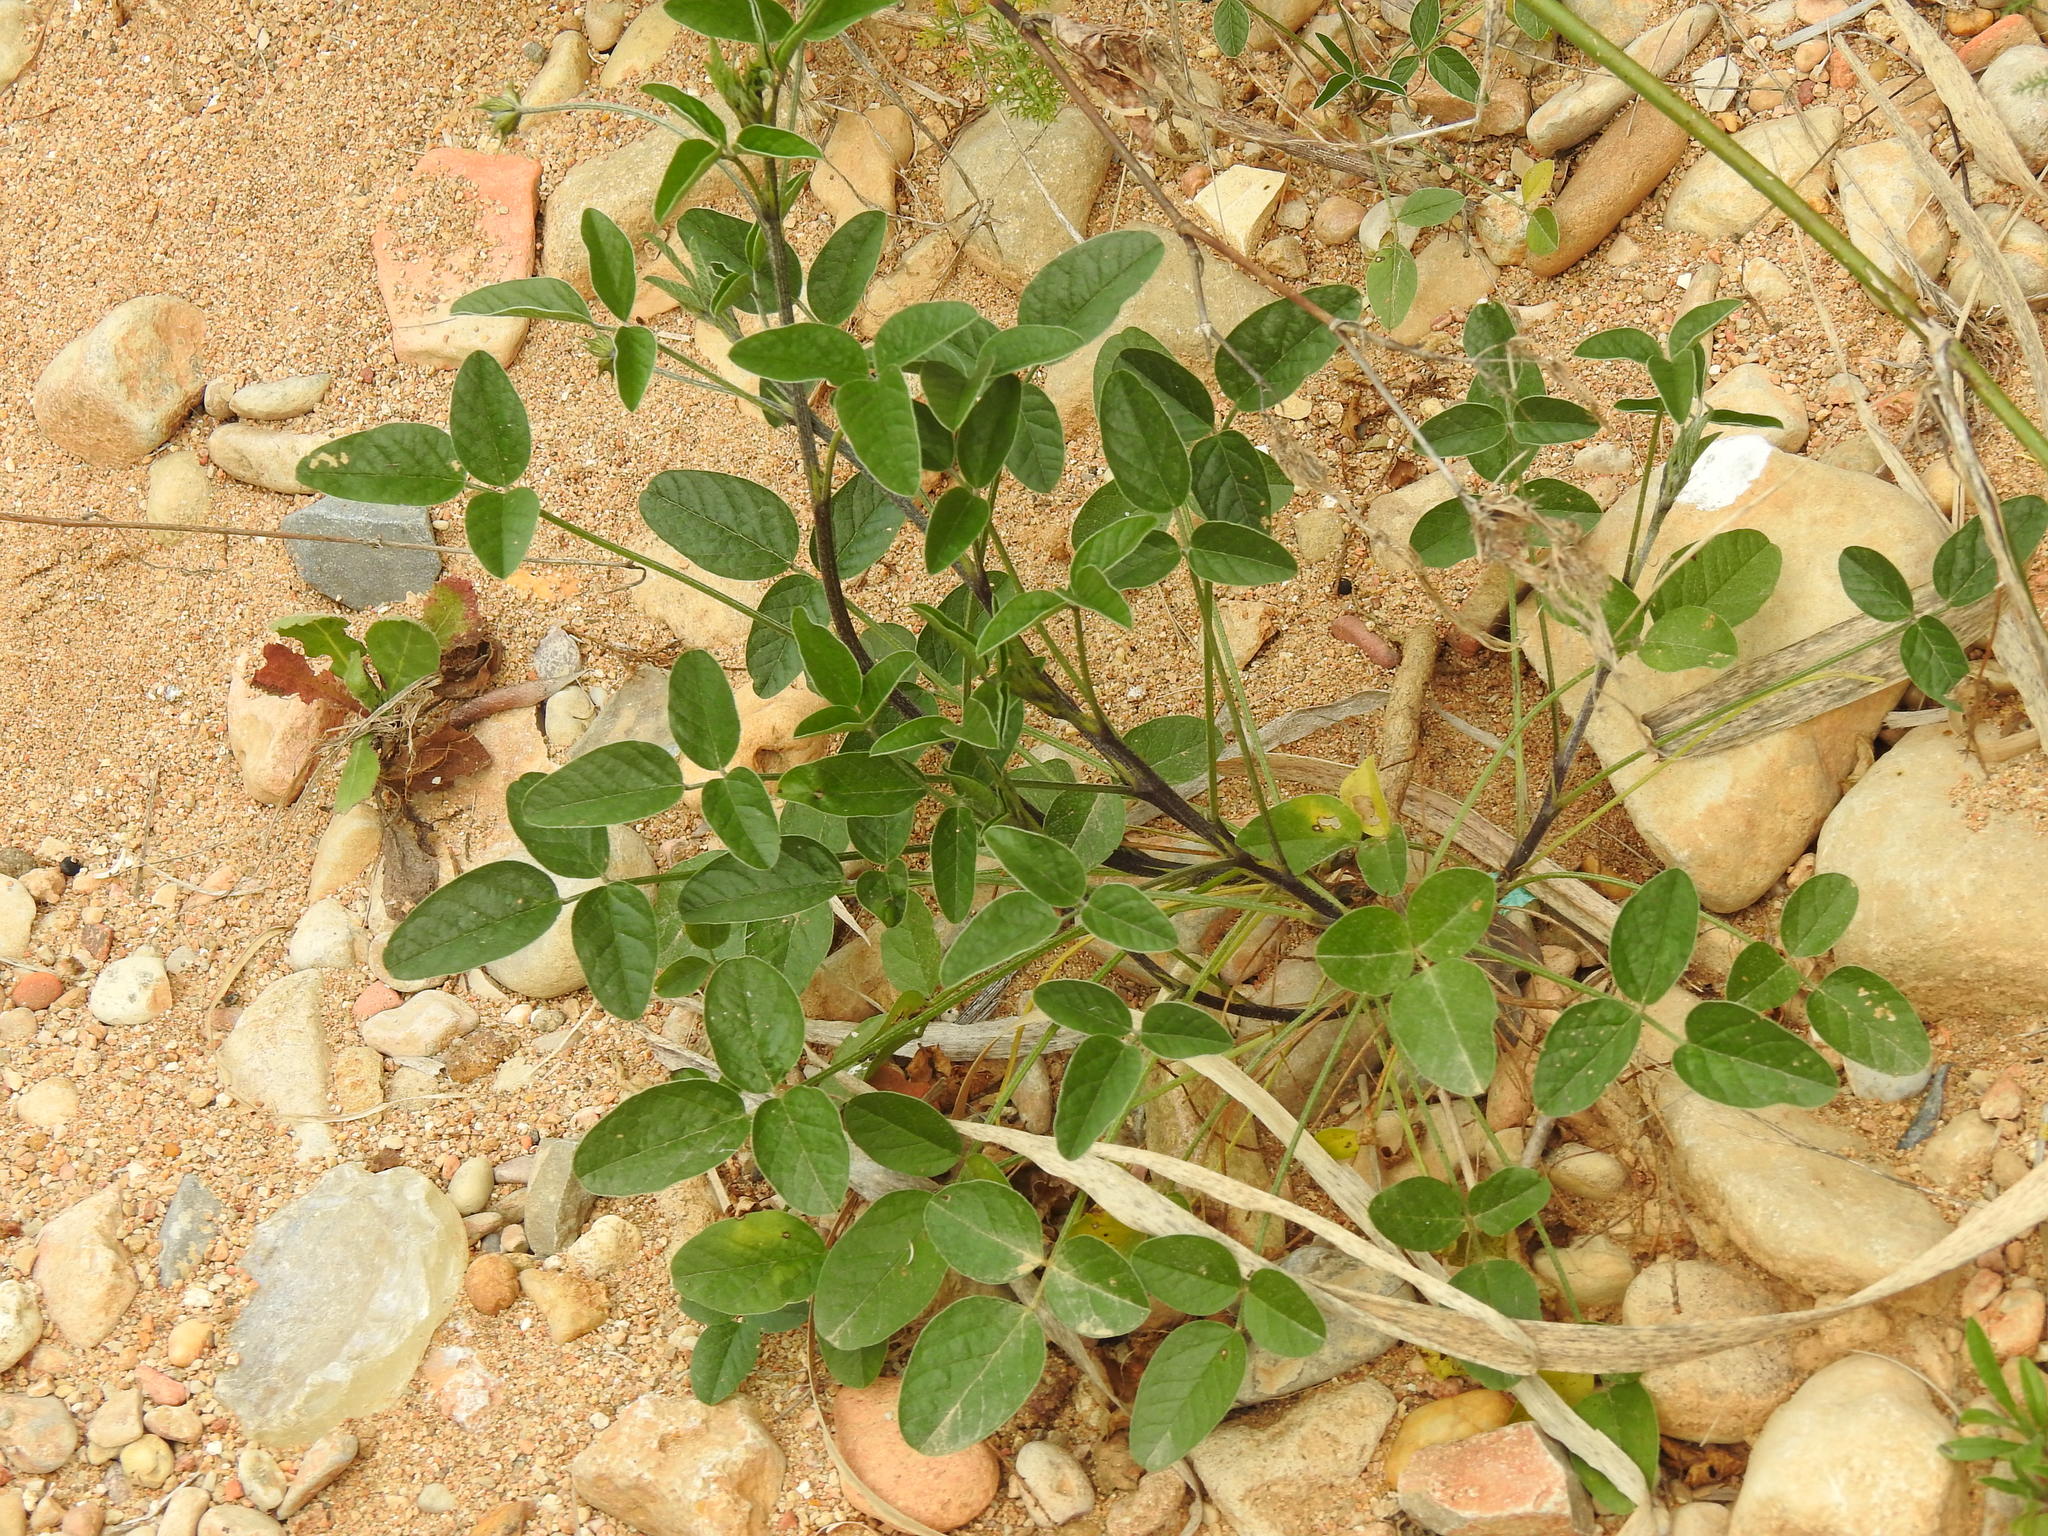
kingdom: Plantae
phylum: Tracheophyta
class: Magnoliopsida
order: Fabales
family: Fabaceae
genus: Bituminaria
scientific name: Bituminaria bituminosa
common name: Arabian pea
